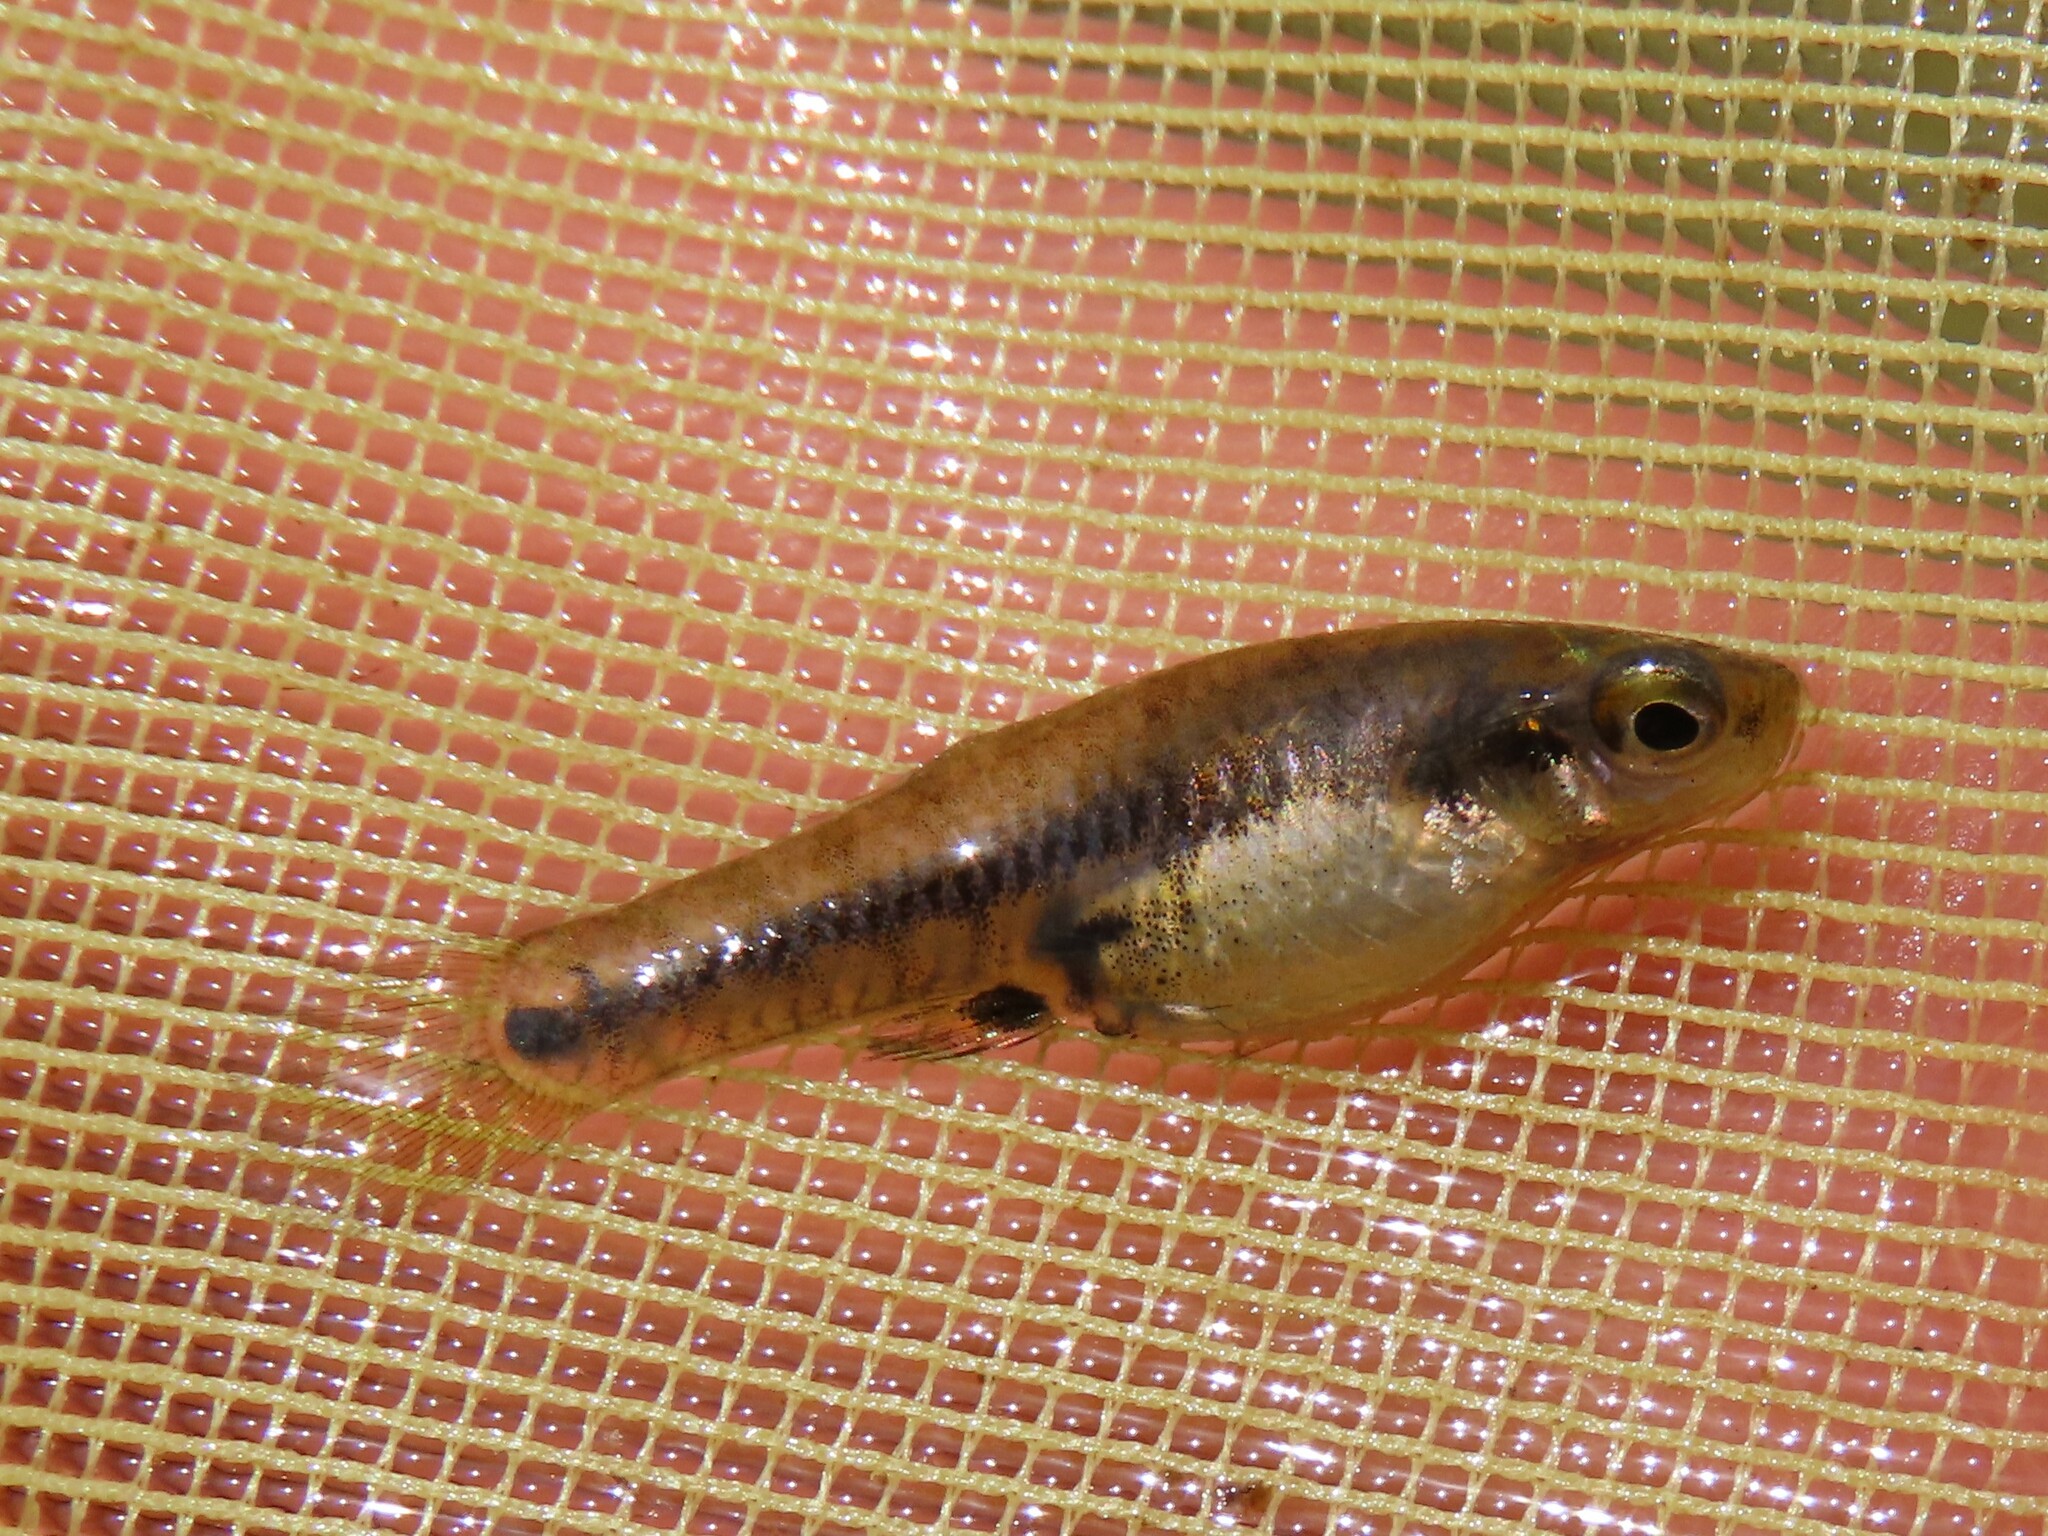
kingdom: Animalia
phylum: Chordata
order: Cyprinodontiformes
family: Poeciliidae
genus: Heterandria
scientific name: Heterandria formosa
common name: Least killifish
